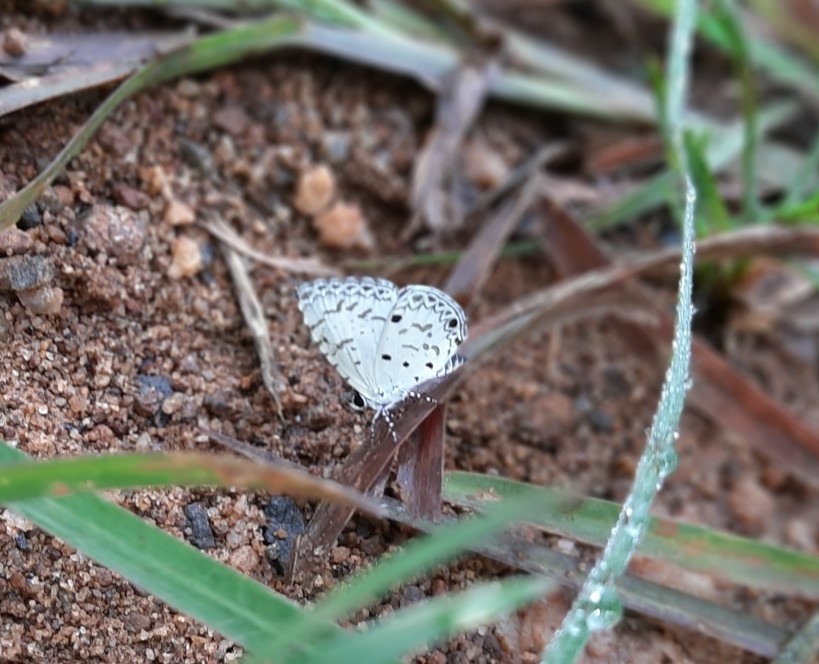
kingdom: Animalia
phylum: Arthropoda
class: Insecta
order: Lepidoptera
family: Lycaenidae
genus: Megisba
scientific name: Megisba malaya
